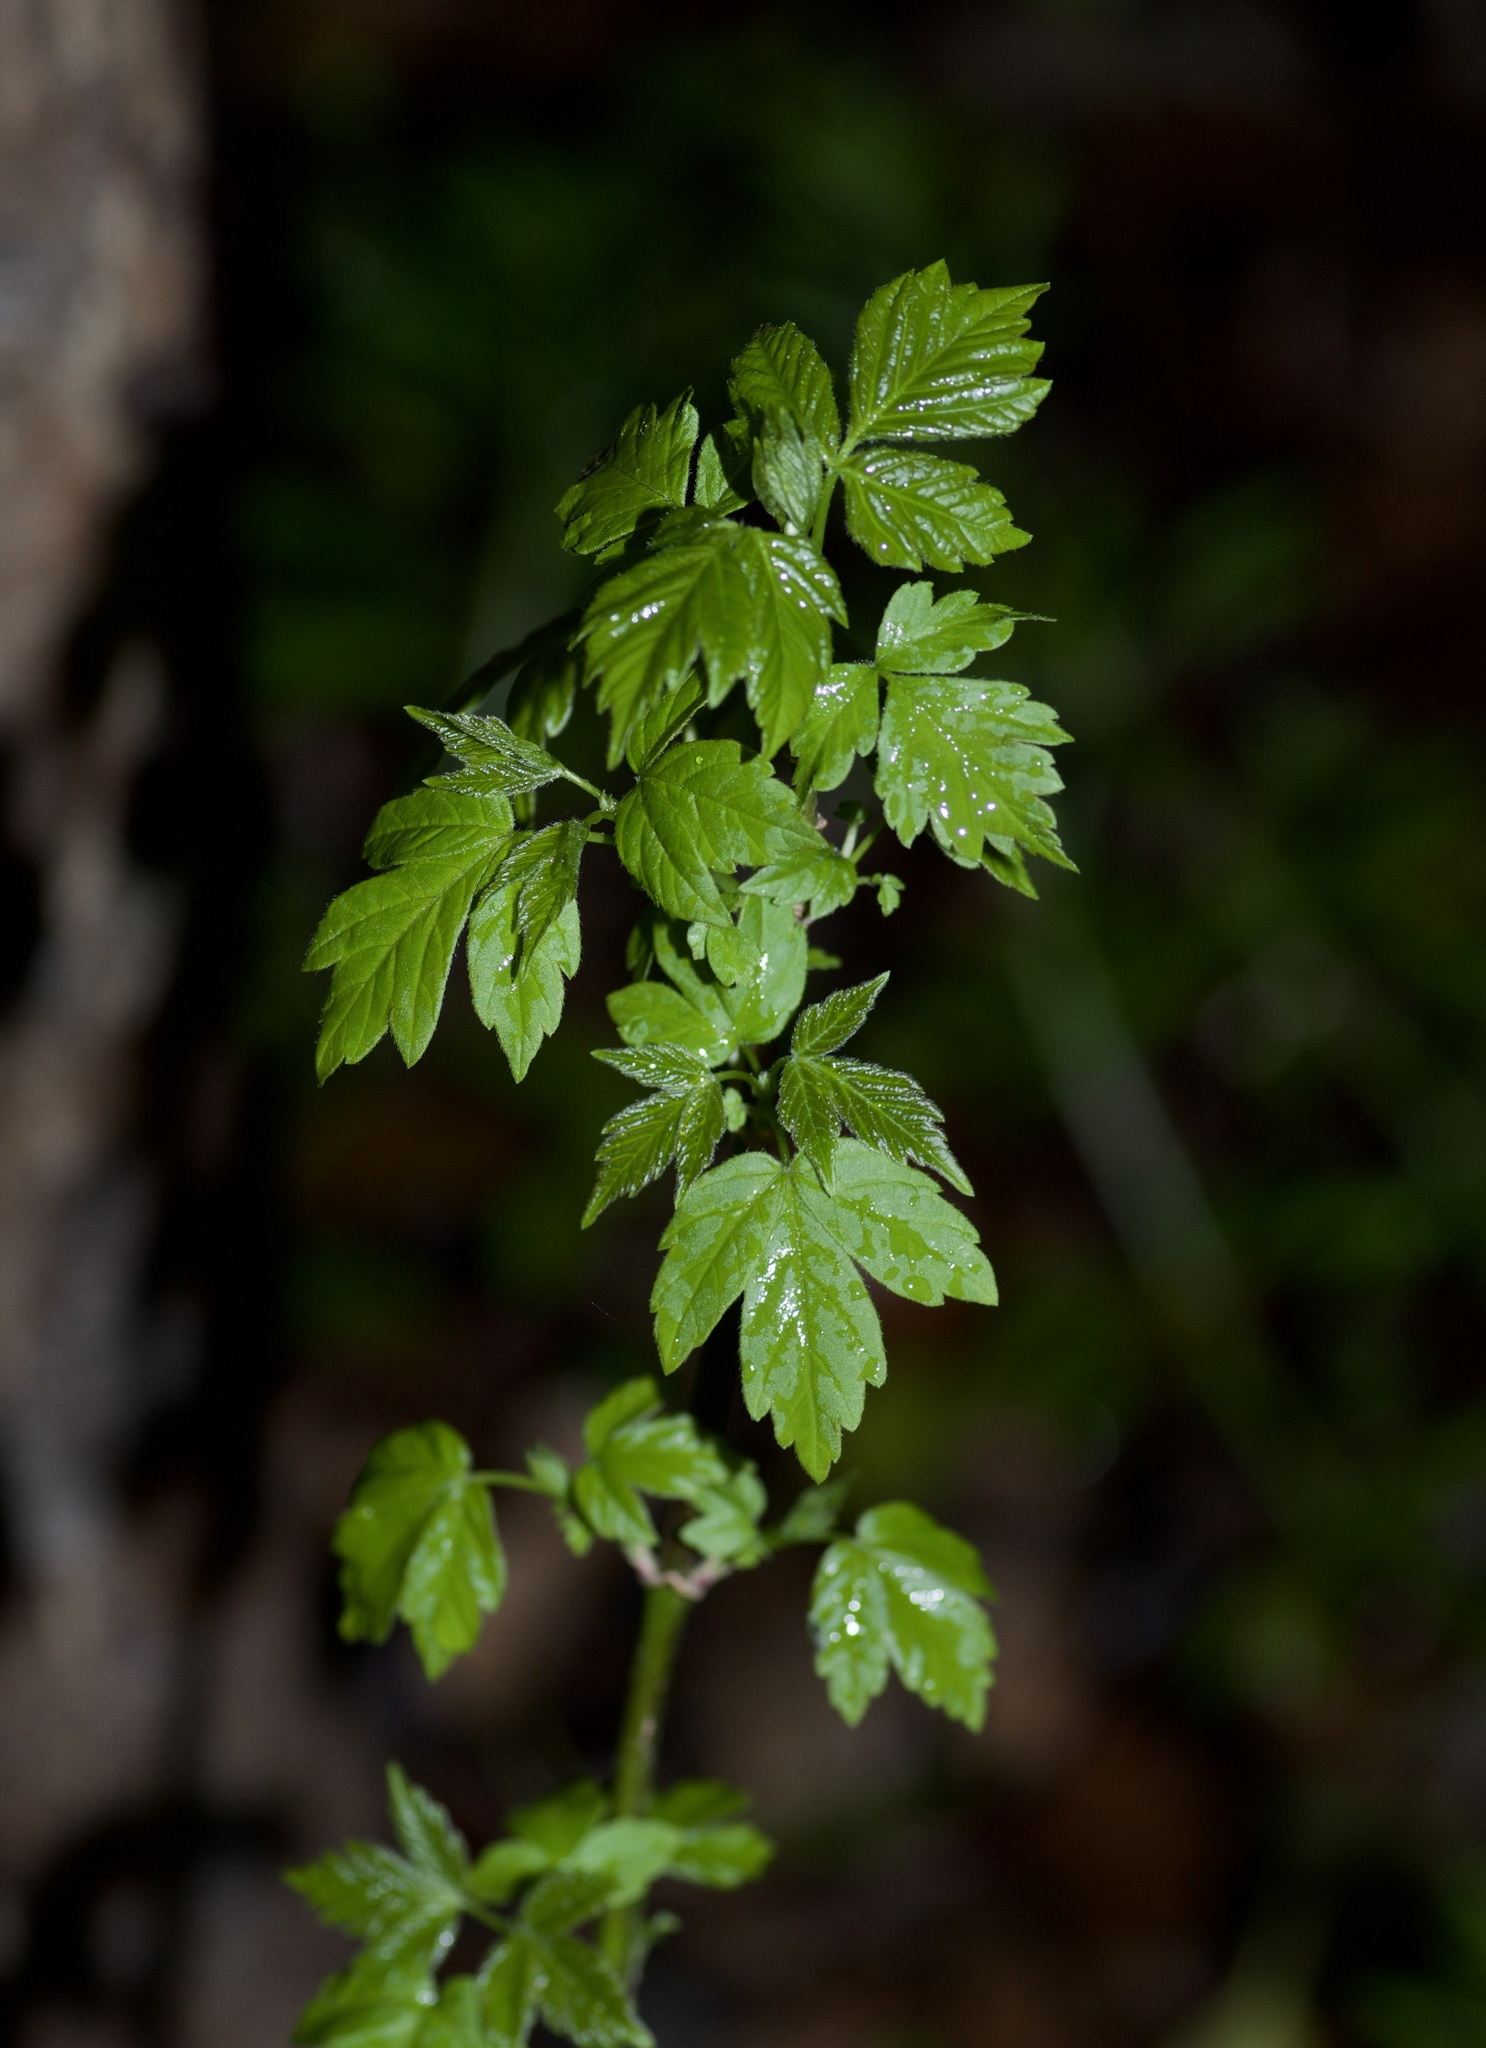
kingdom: Plantae
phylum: Tracheophyta
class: Magnoliopsida
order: Sapindales
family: Sapindaceae
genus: Acer
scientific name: Acer negundo
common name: Ashleaf maple
